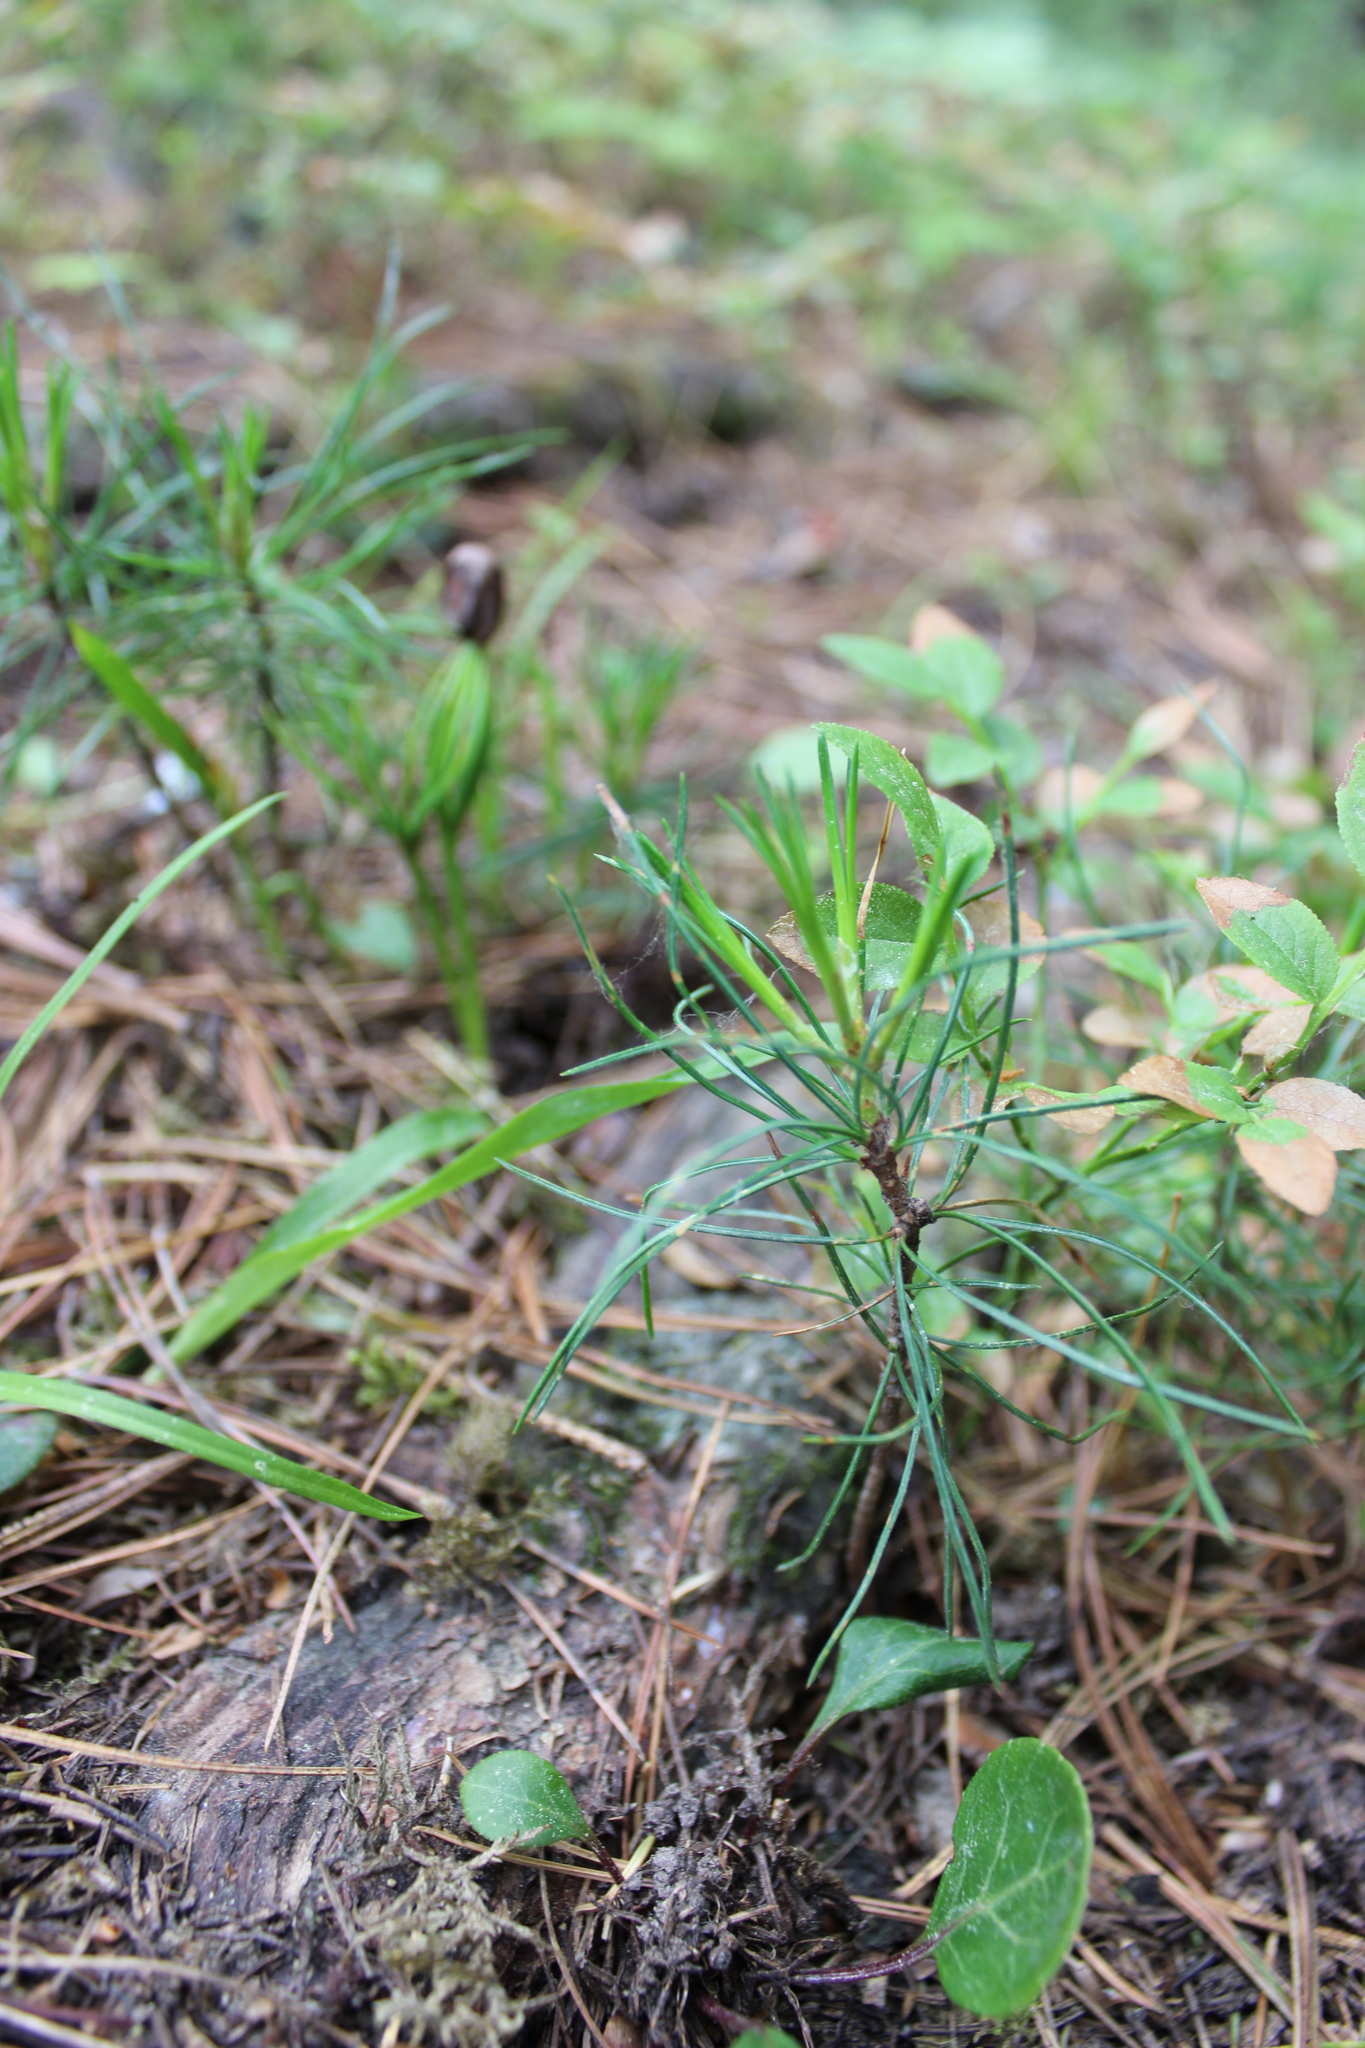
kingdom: Plantae
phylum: Tracheophyta
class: Pinopsida
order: Pinales
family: Pinaceae
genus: Pinus
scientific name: Pinus sibirica
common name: Siberian pine
